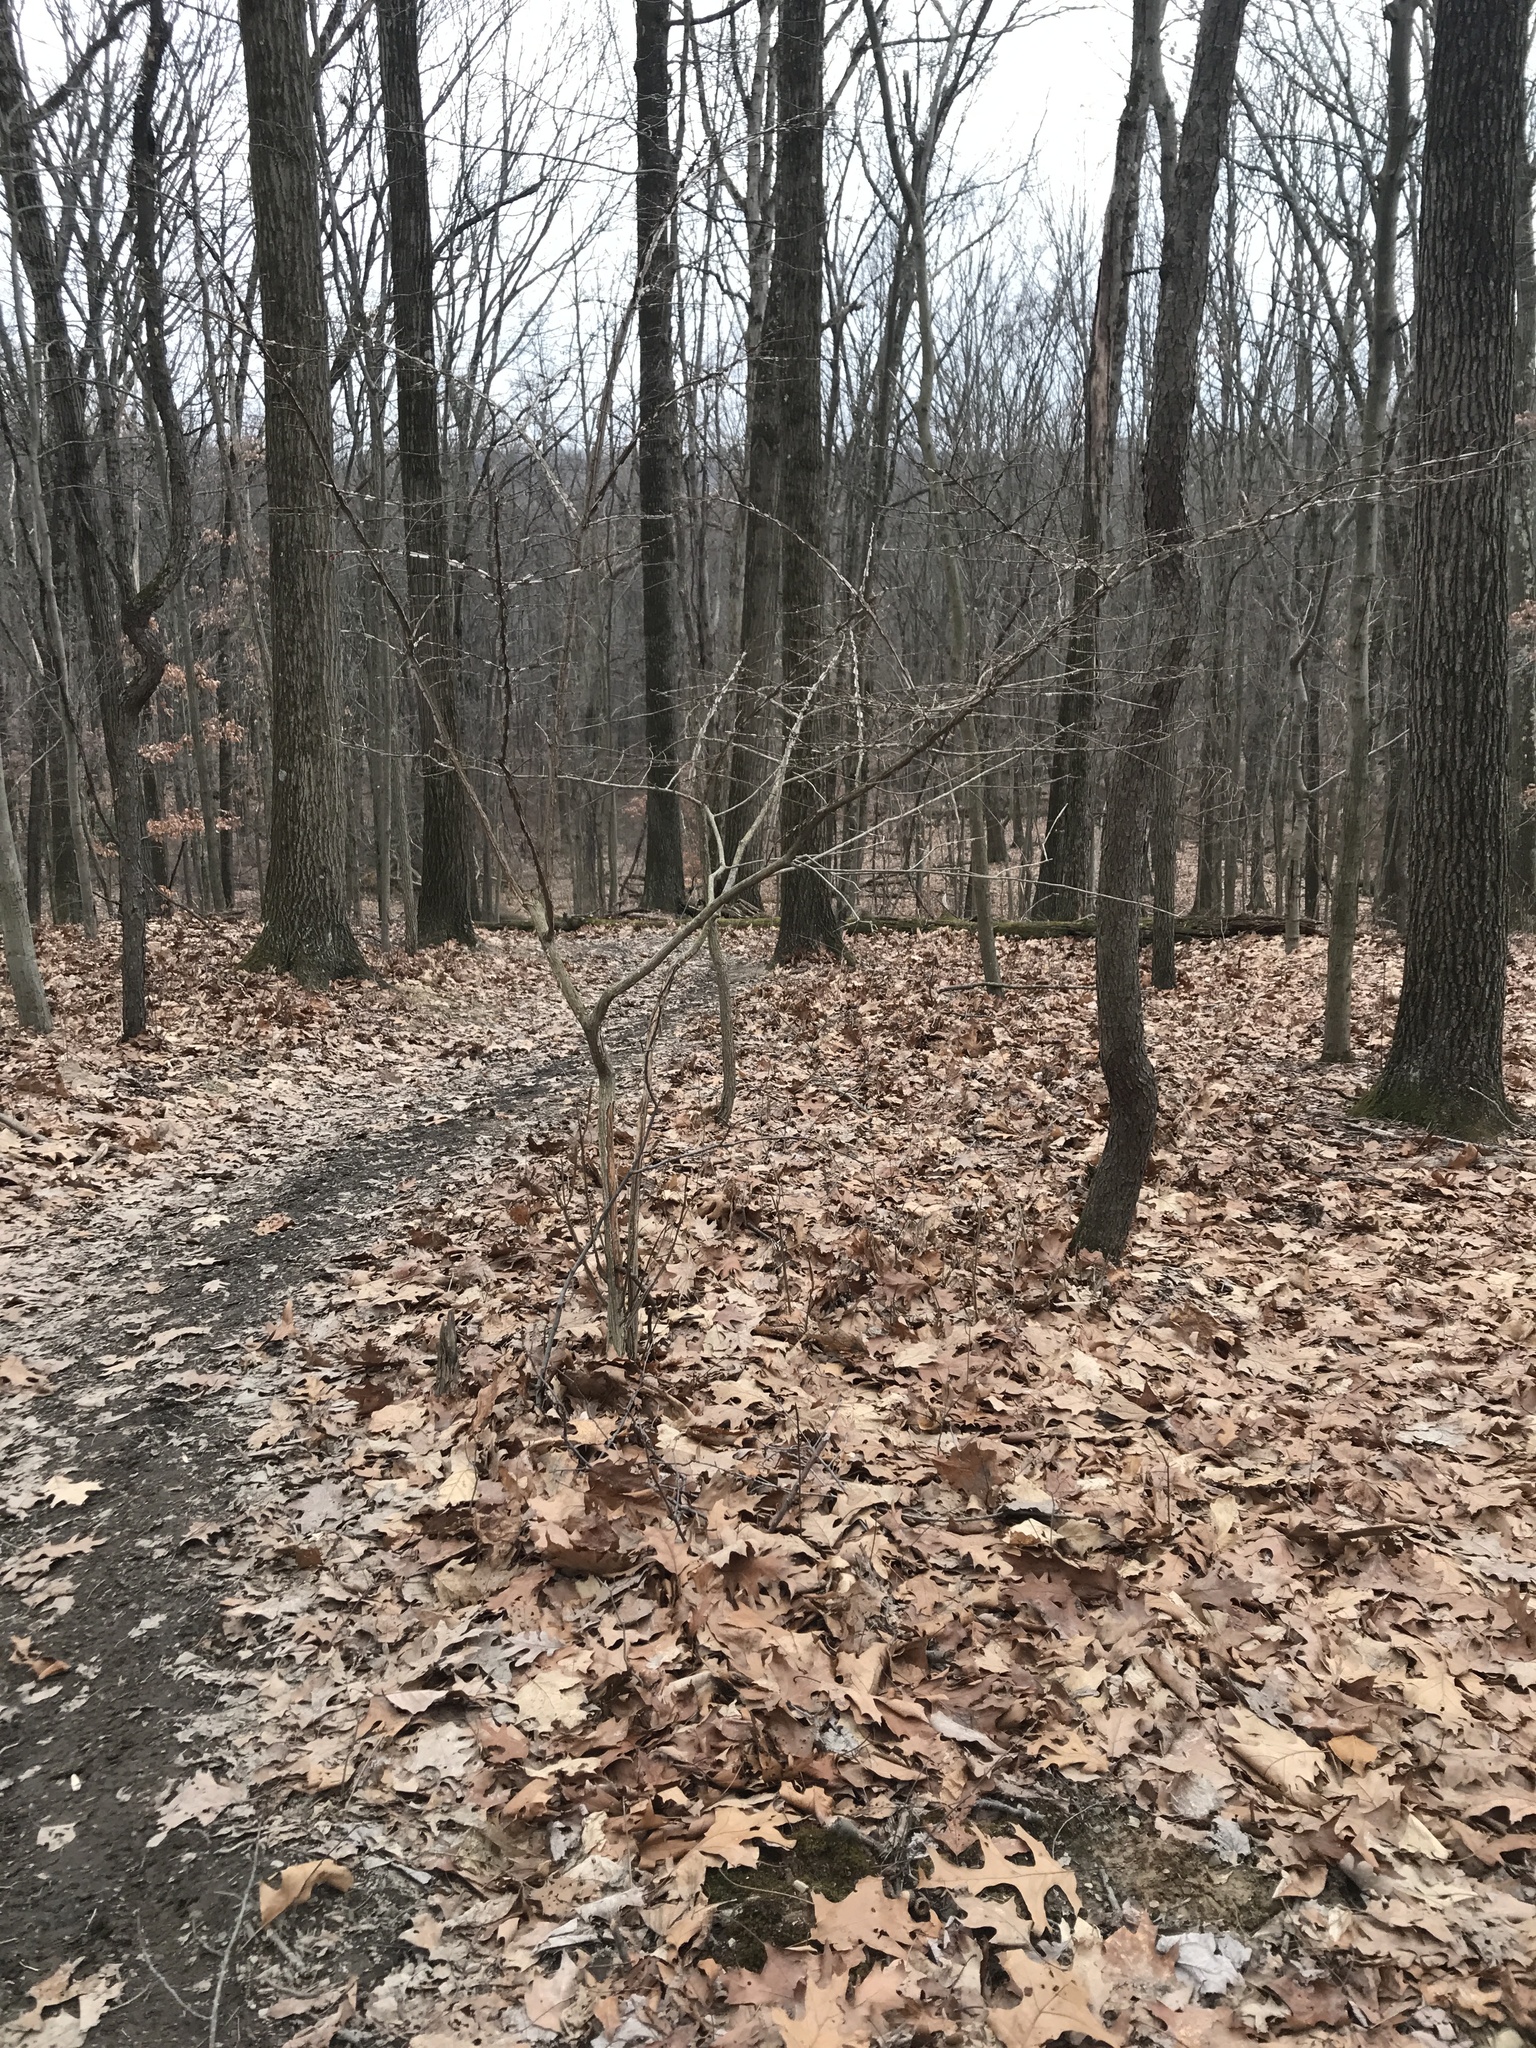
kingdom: Plantae
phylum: Tracheophyta
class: Magnoliopsida
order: Celastrales
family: Celastraceae
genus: Euonymus
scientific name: Euonymus alatus
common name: Winged euonymus
